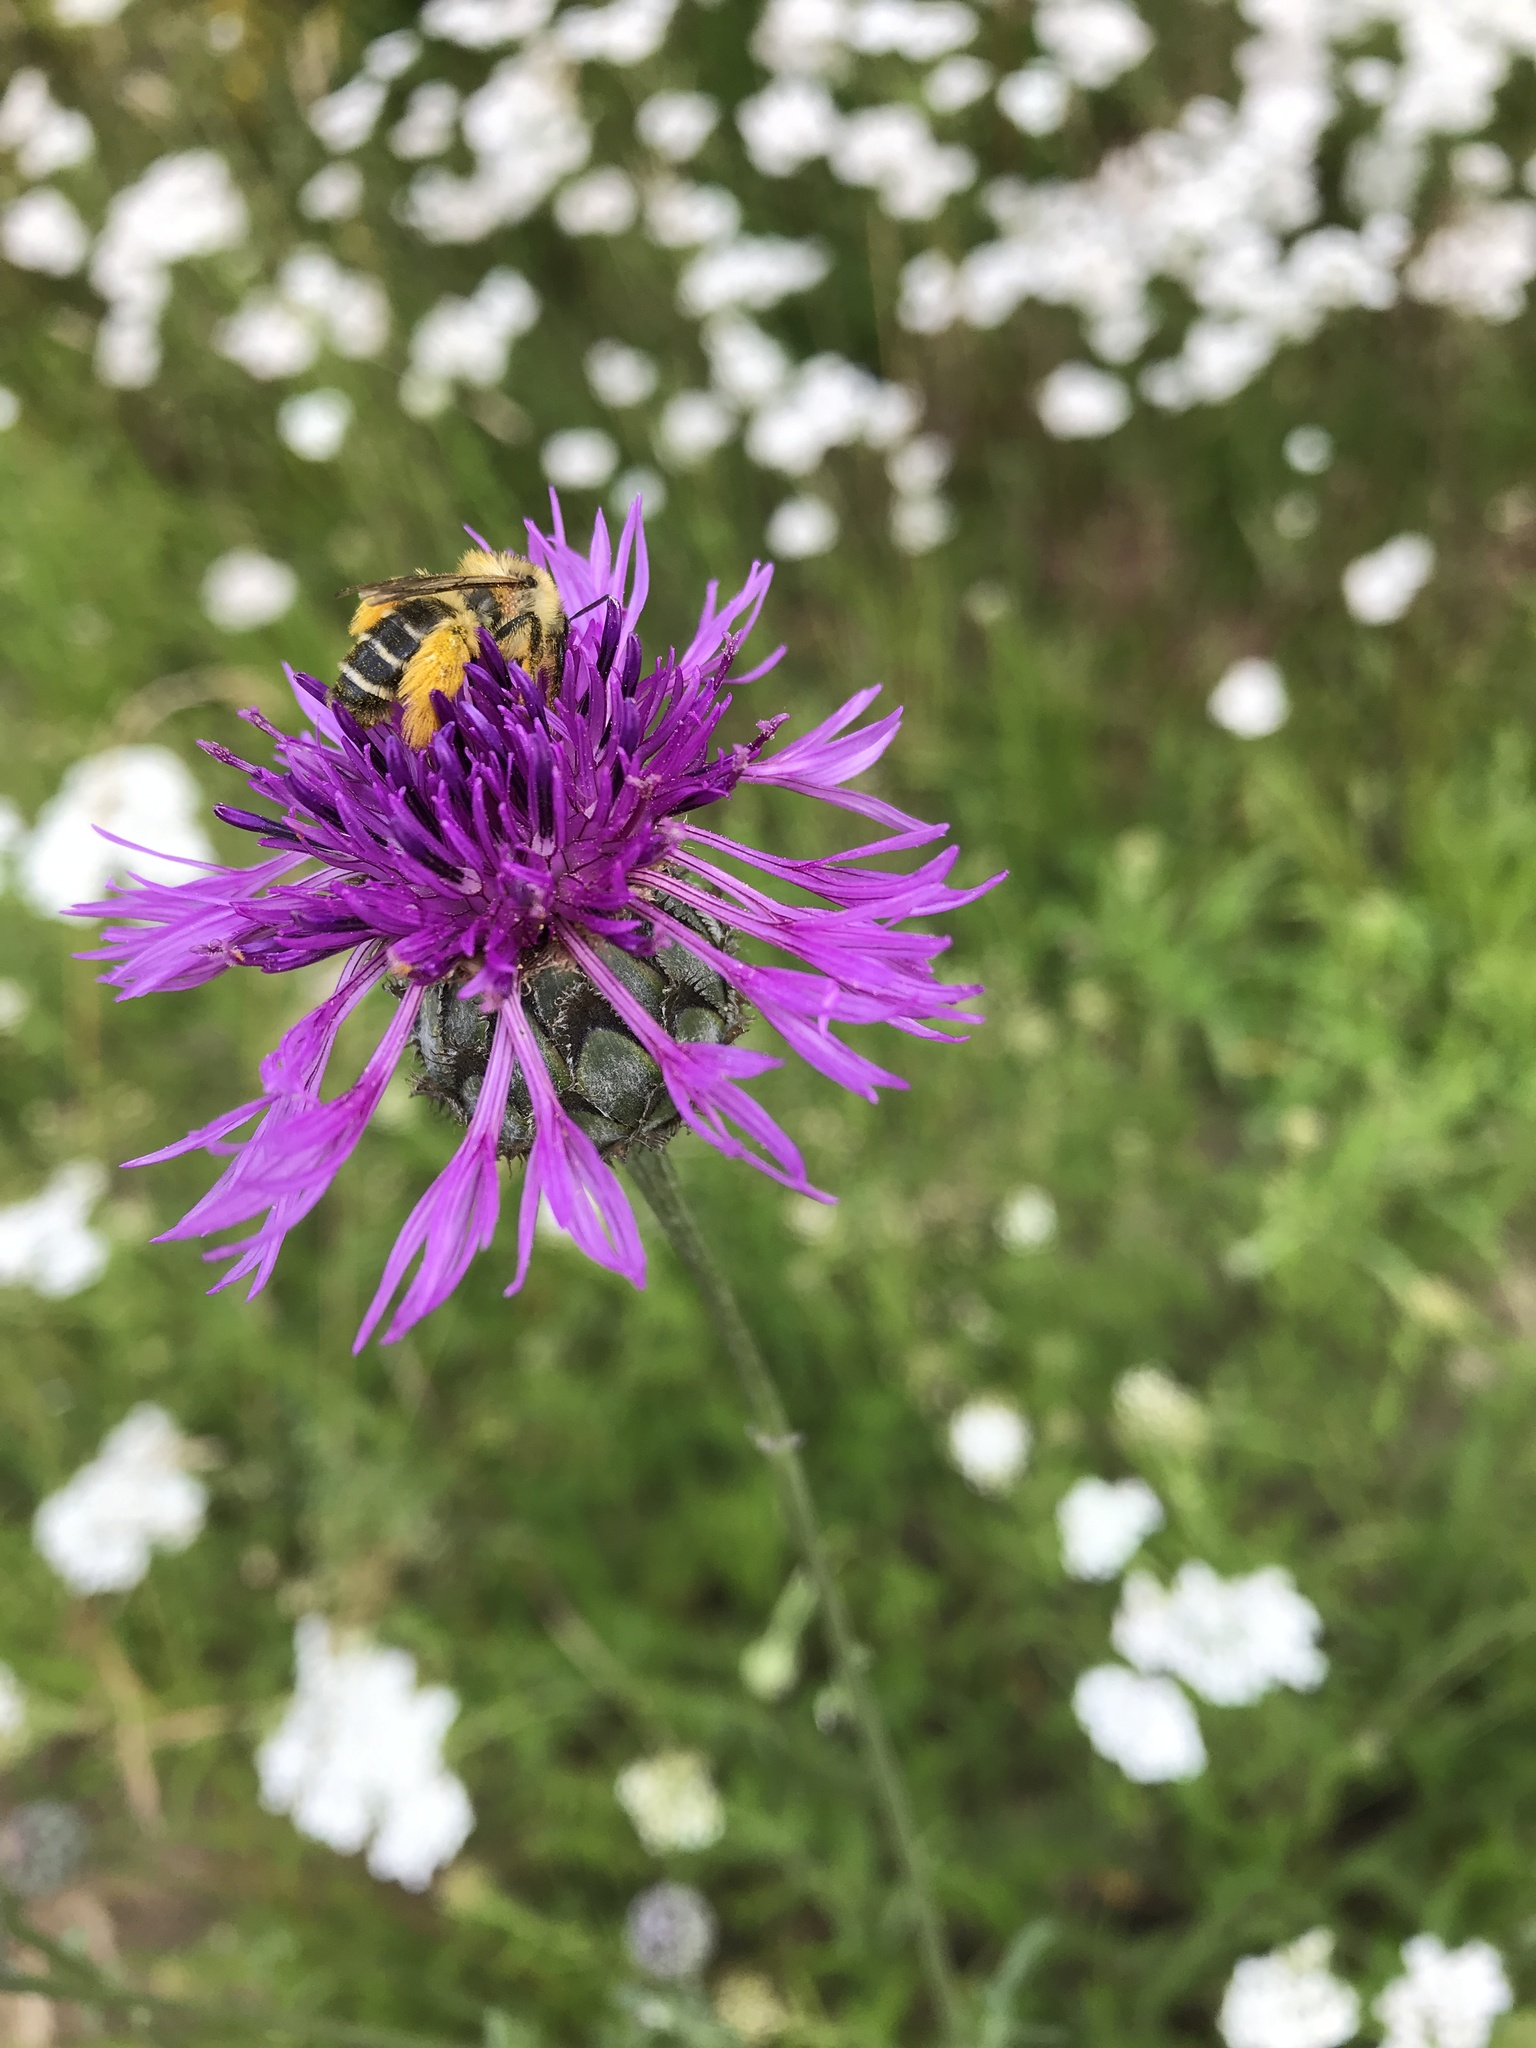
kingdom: Animalia
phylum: Arthropoda
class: Insecta
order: Hymenoptera
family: Melittidae
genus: Dasypoda
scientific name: Dasypoda hirtipes
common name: Pantaloon bee
